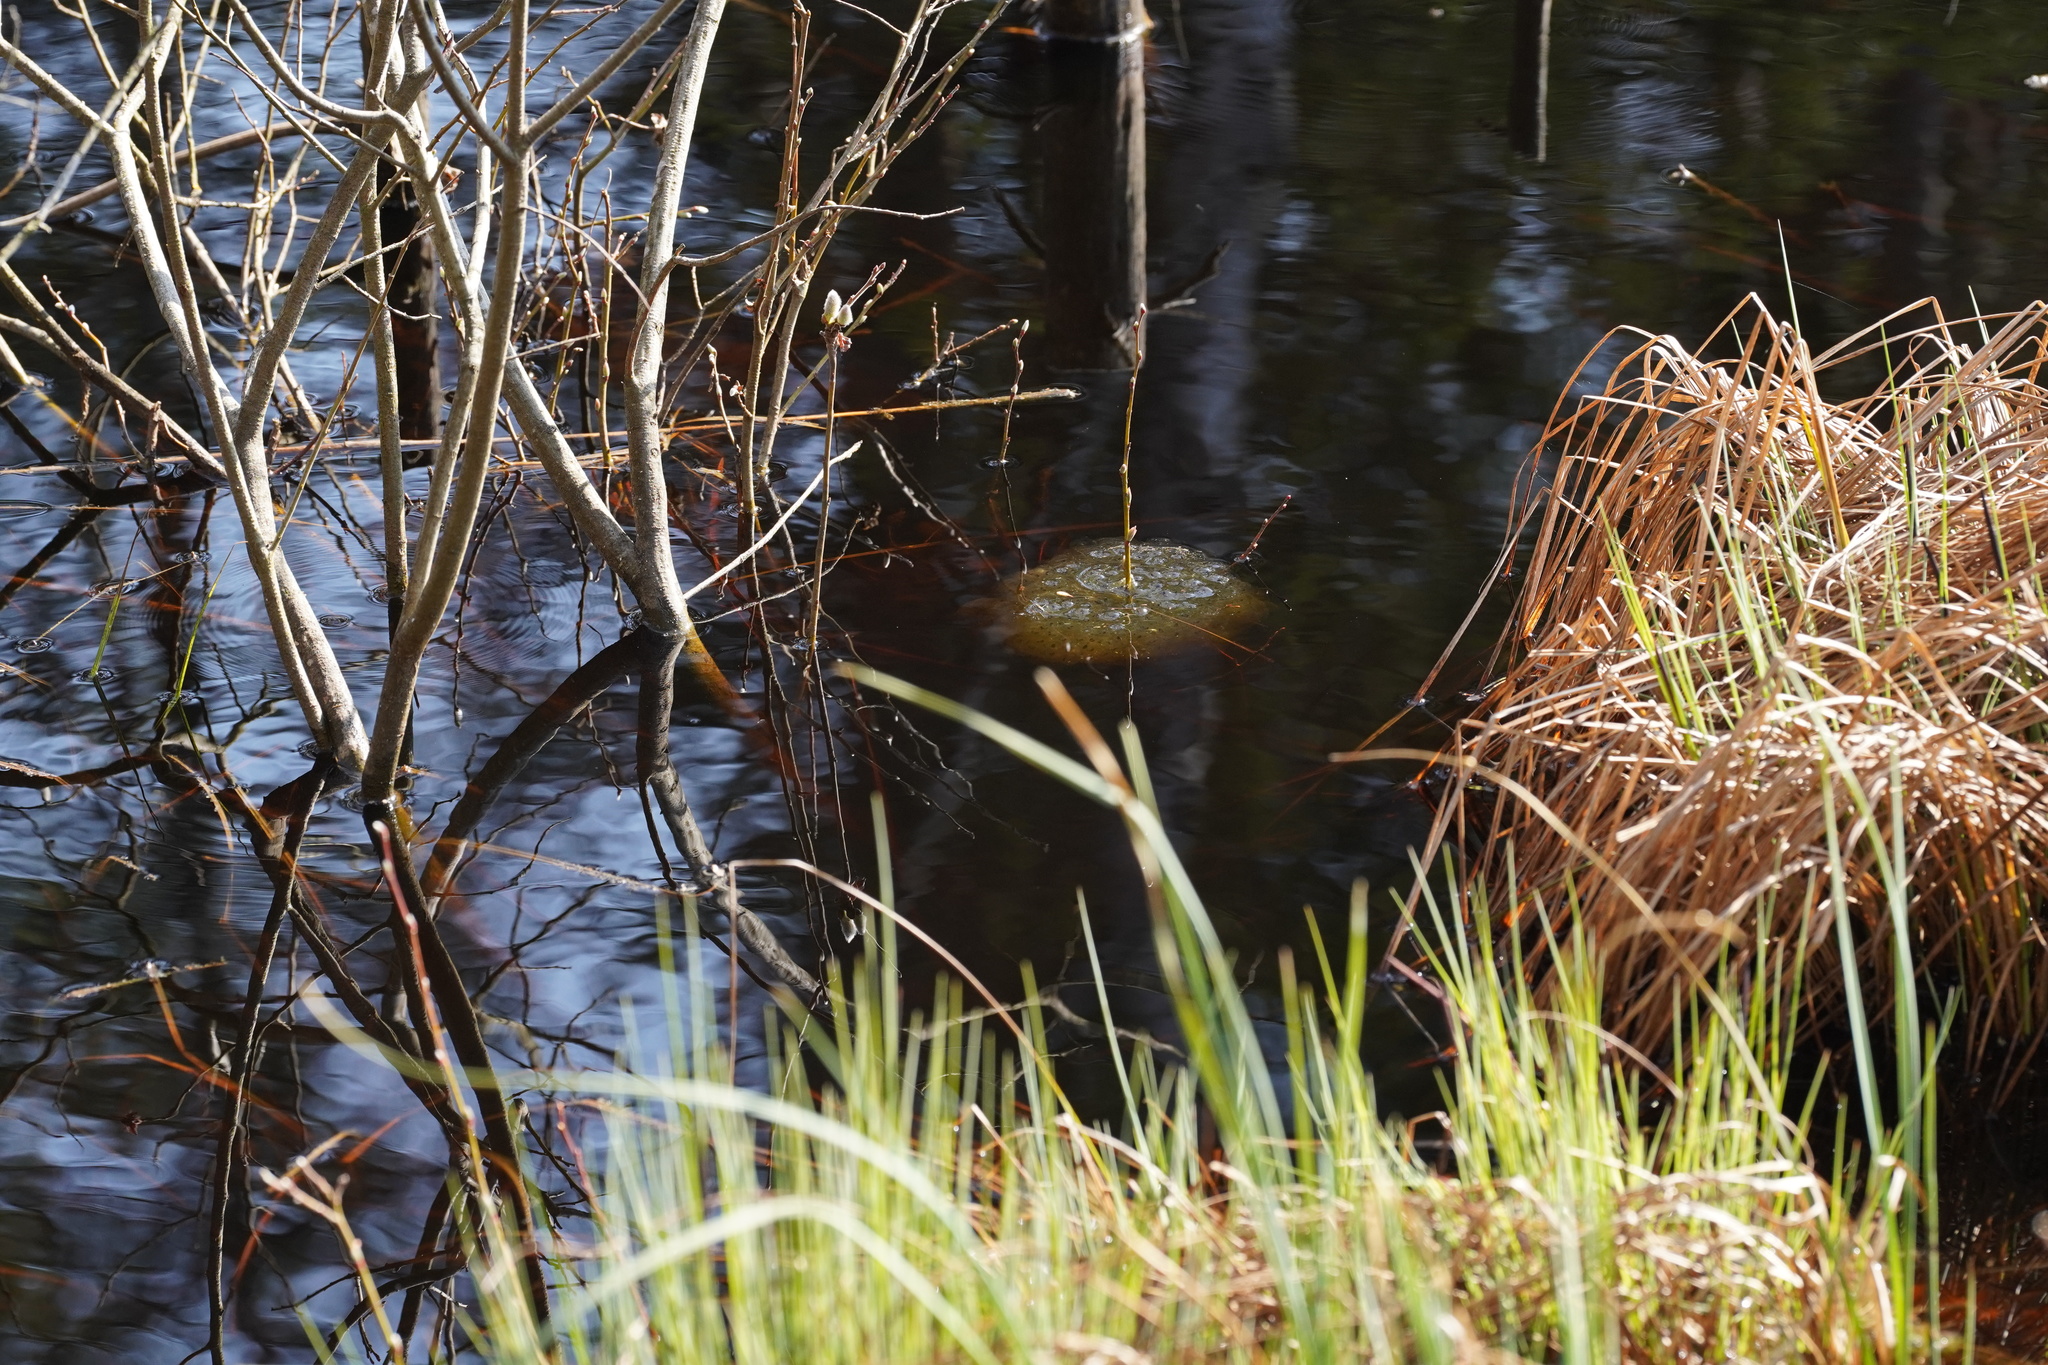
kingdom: Animalia
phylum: Chordata
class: Amphibia
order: Anura
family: Ranidae
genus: Rana
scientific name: Rana dalmatina
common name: Agile frog
